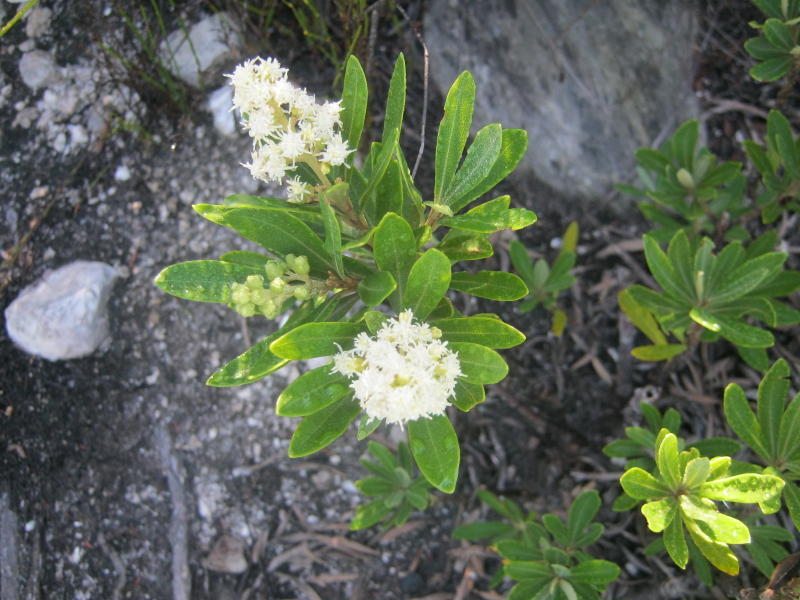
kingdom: Plantae
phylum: Tracheophyta
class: Magnoliopsida
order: Asterales
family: Asteraceae
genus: Brachylaena
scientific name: Brachylaena neriifolia
